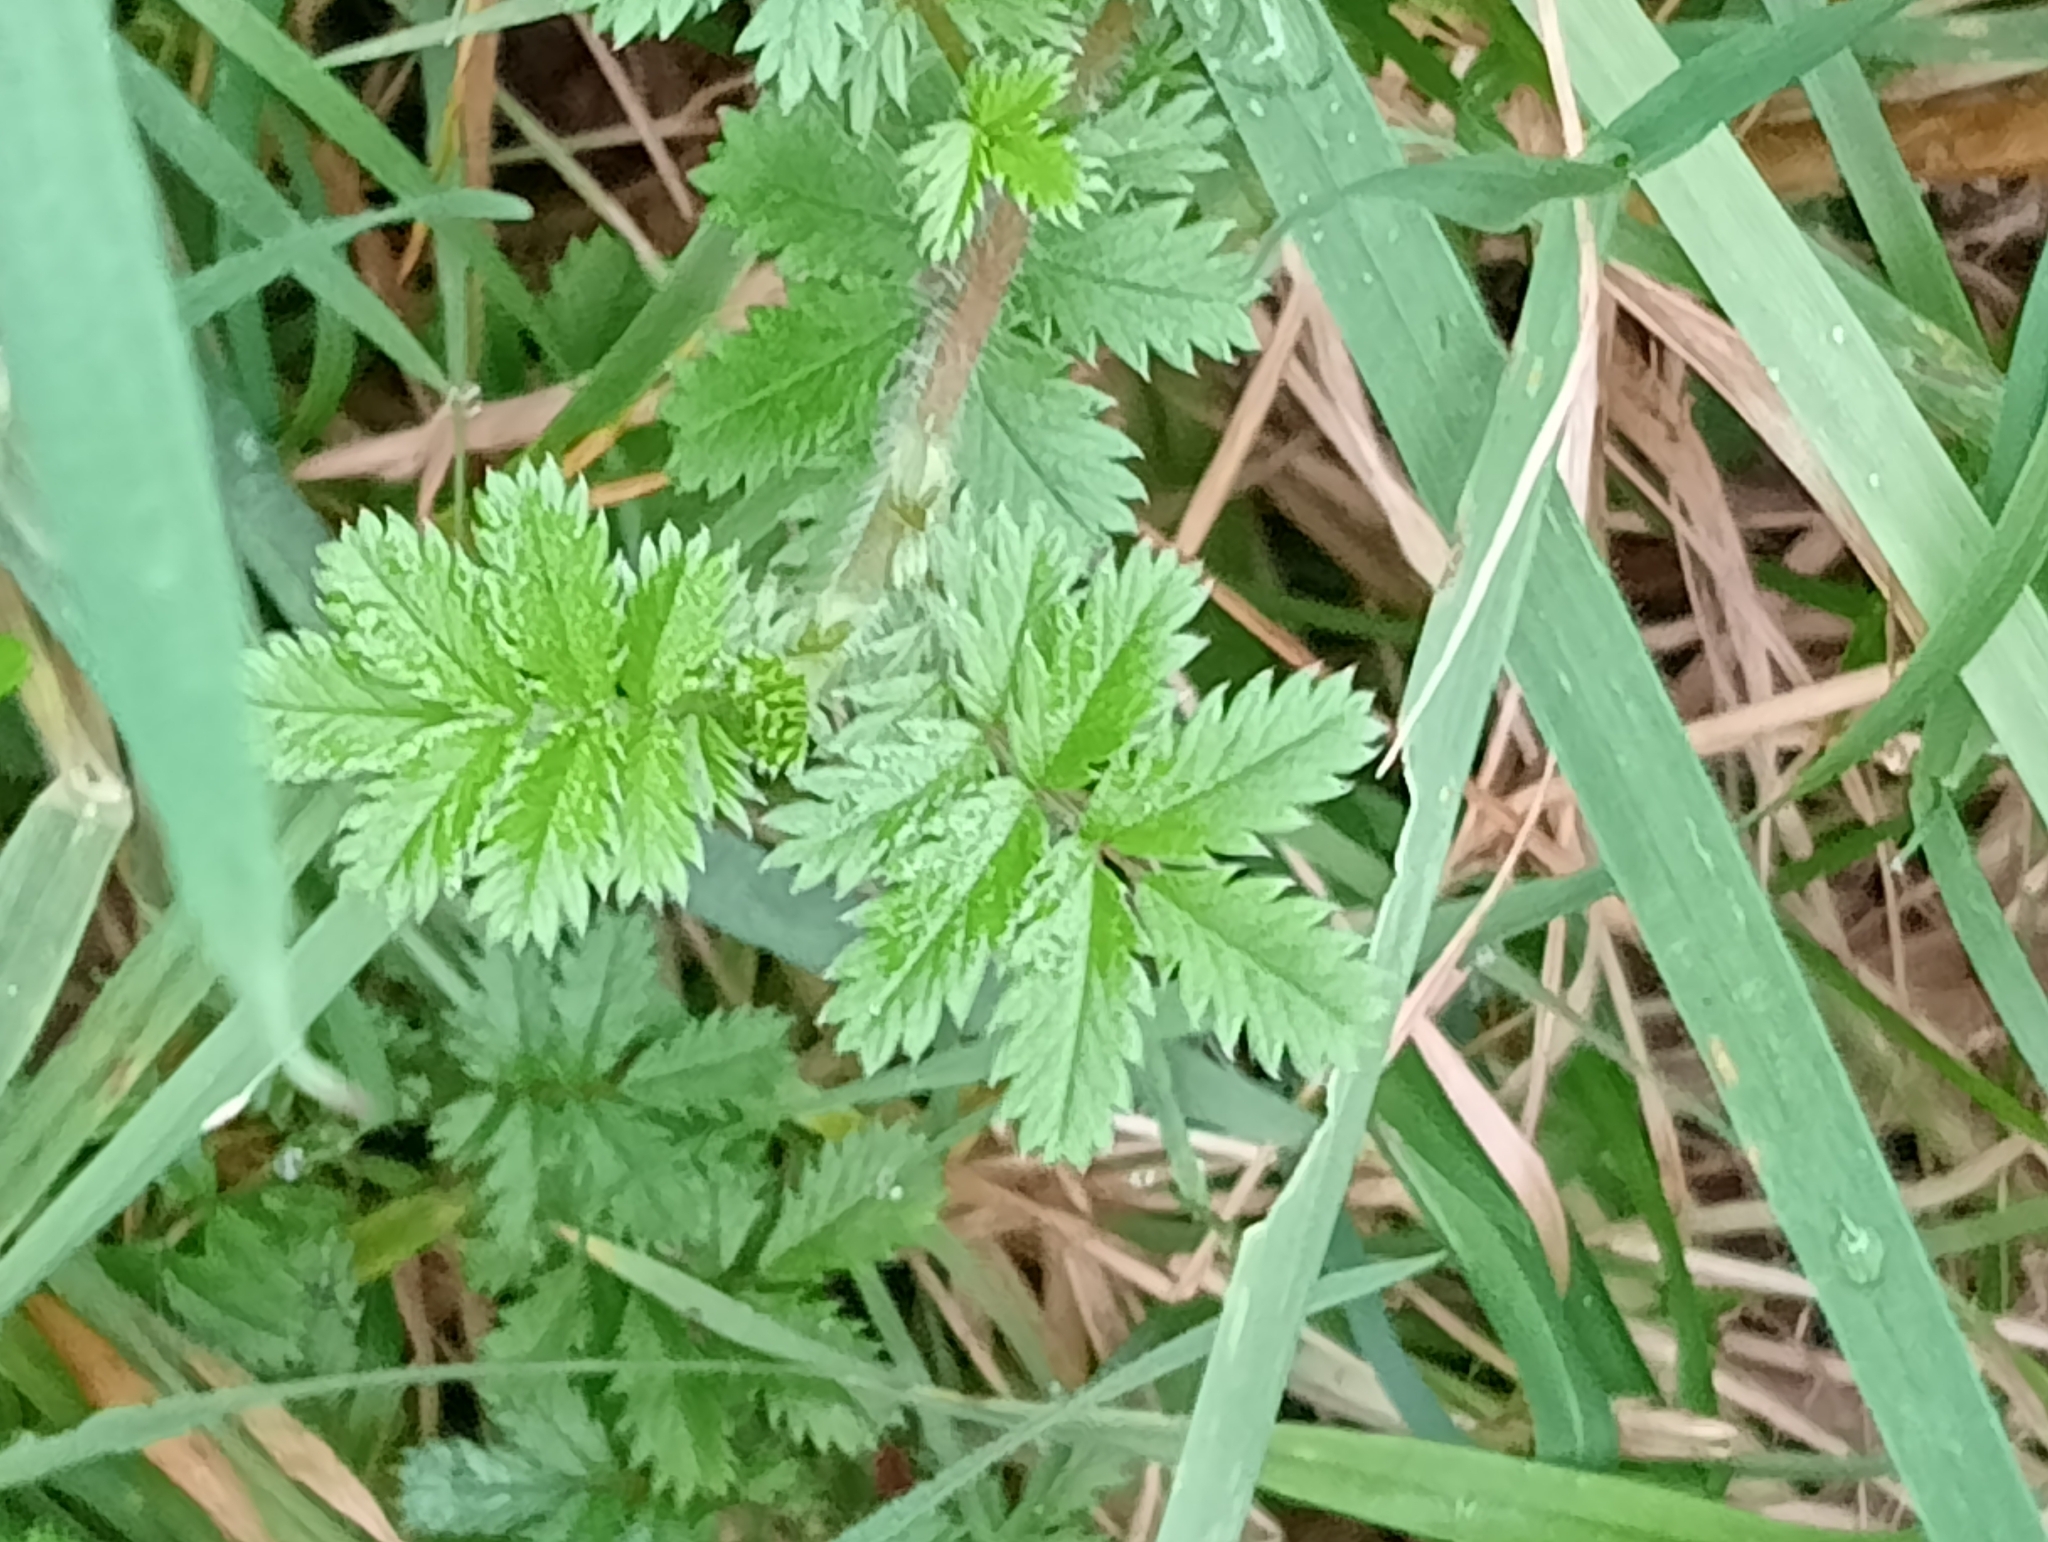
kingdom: Plantae
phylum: Tracheophyta
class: Magnoliopsida
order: Rosales
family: Rosaceae
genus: Acaena
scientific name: Acaena novae-zelandiae
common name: Pirri-pirri-bur
